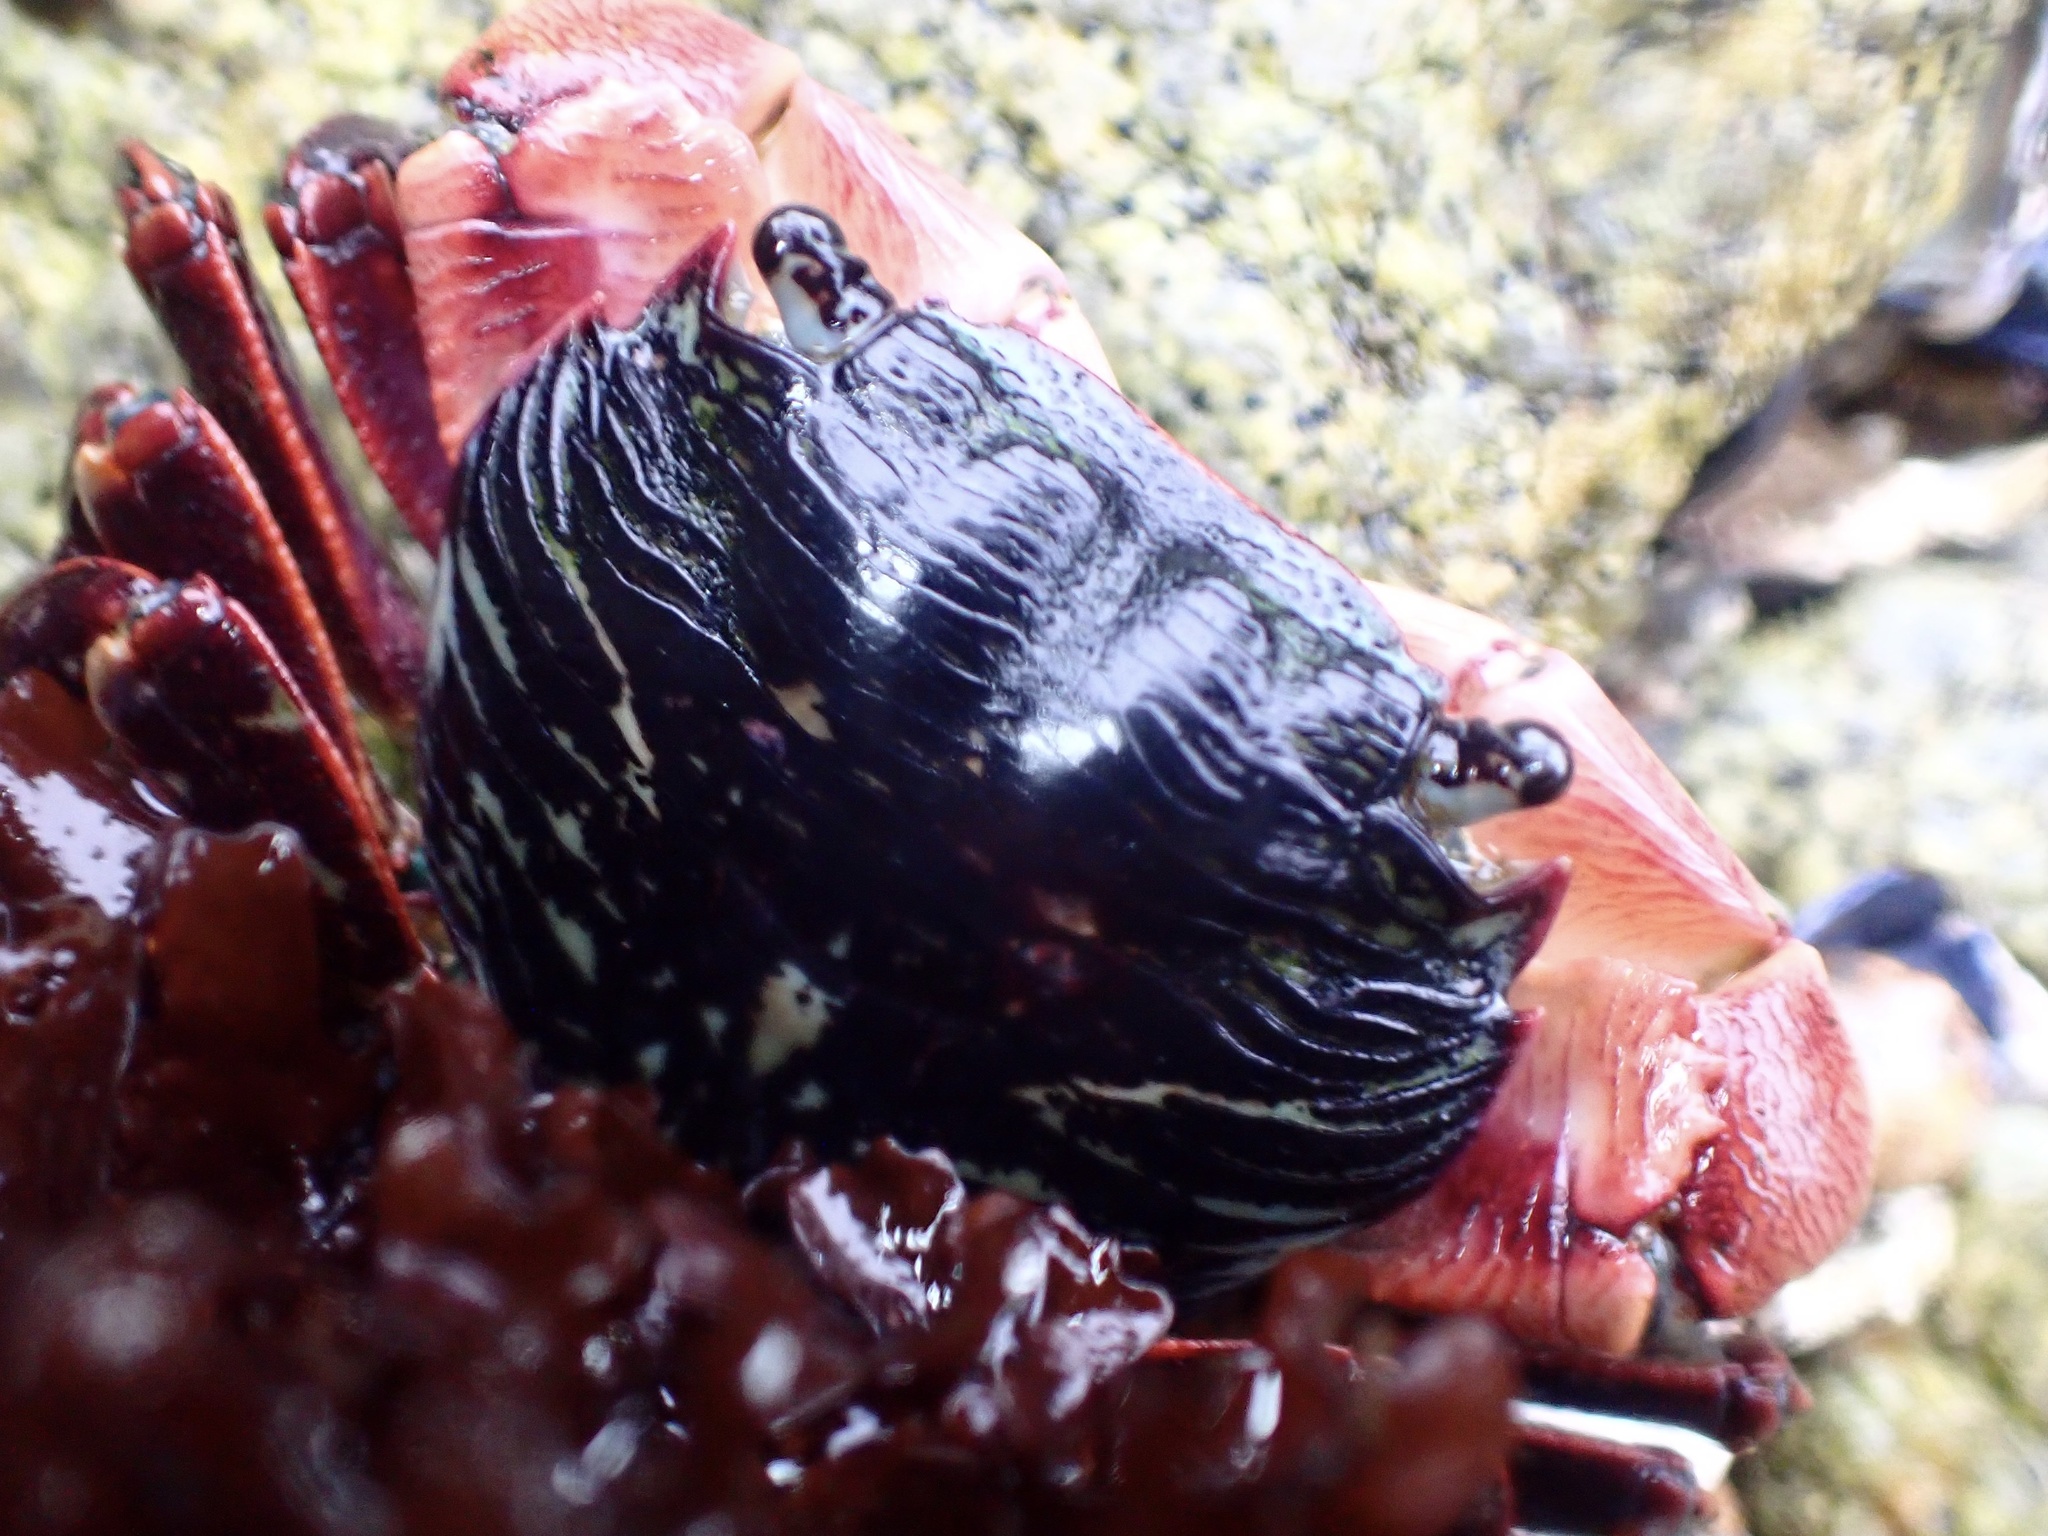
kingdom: Animalia
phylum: Arthropoda
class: Malacostraca
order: Decapoda
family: Grapsidae
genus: Pachygrapsus
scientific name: Pachygrapsus crassipes
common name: Striped shore crab
